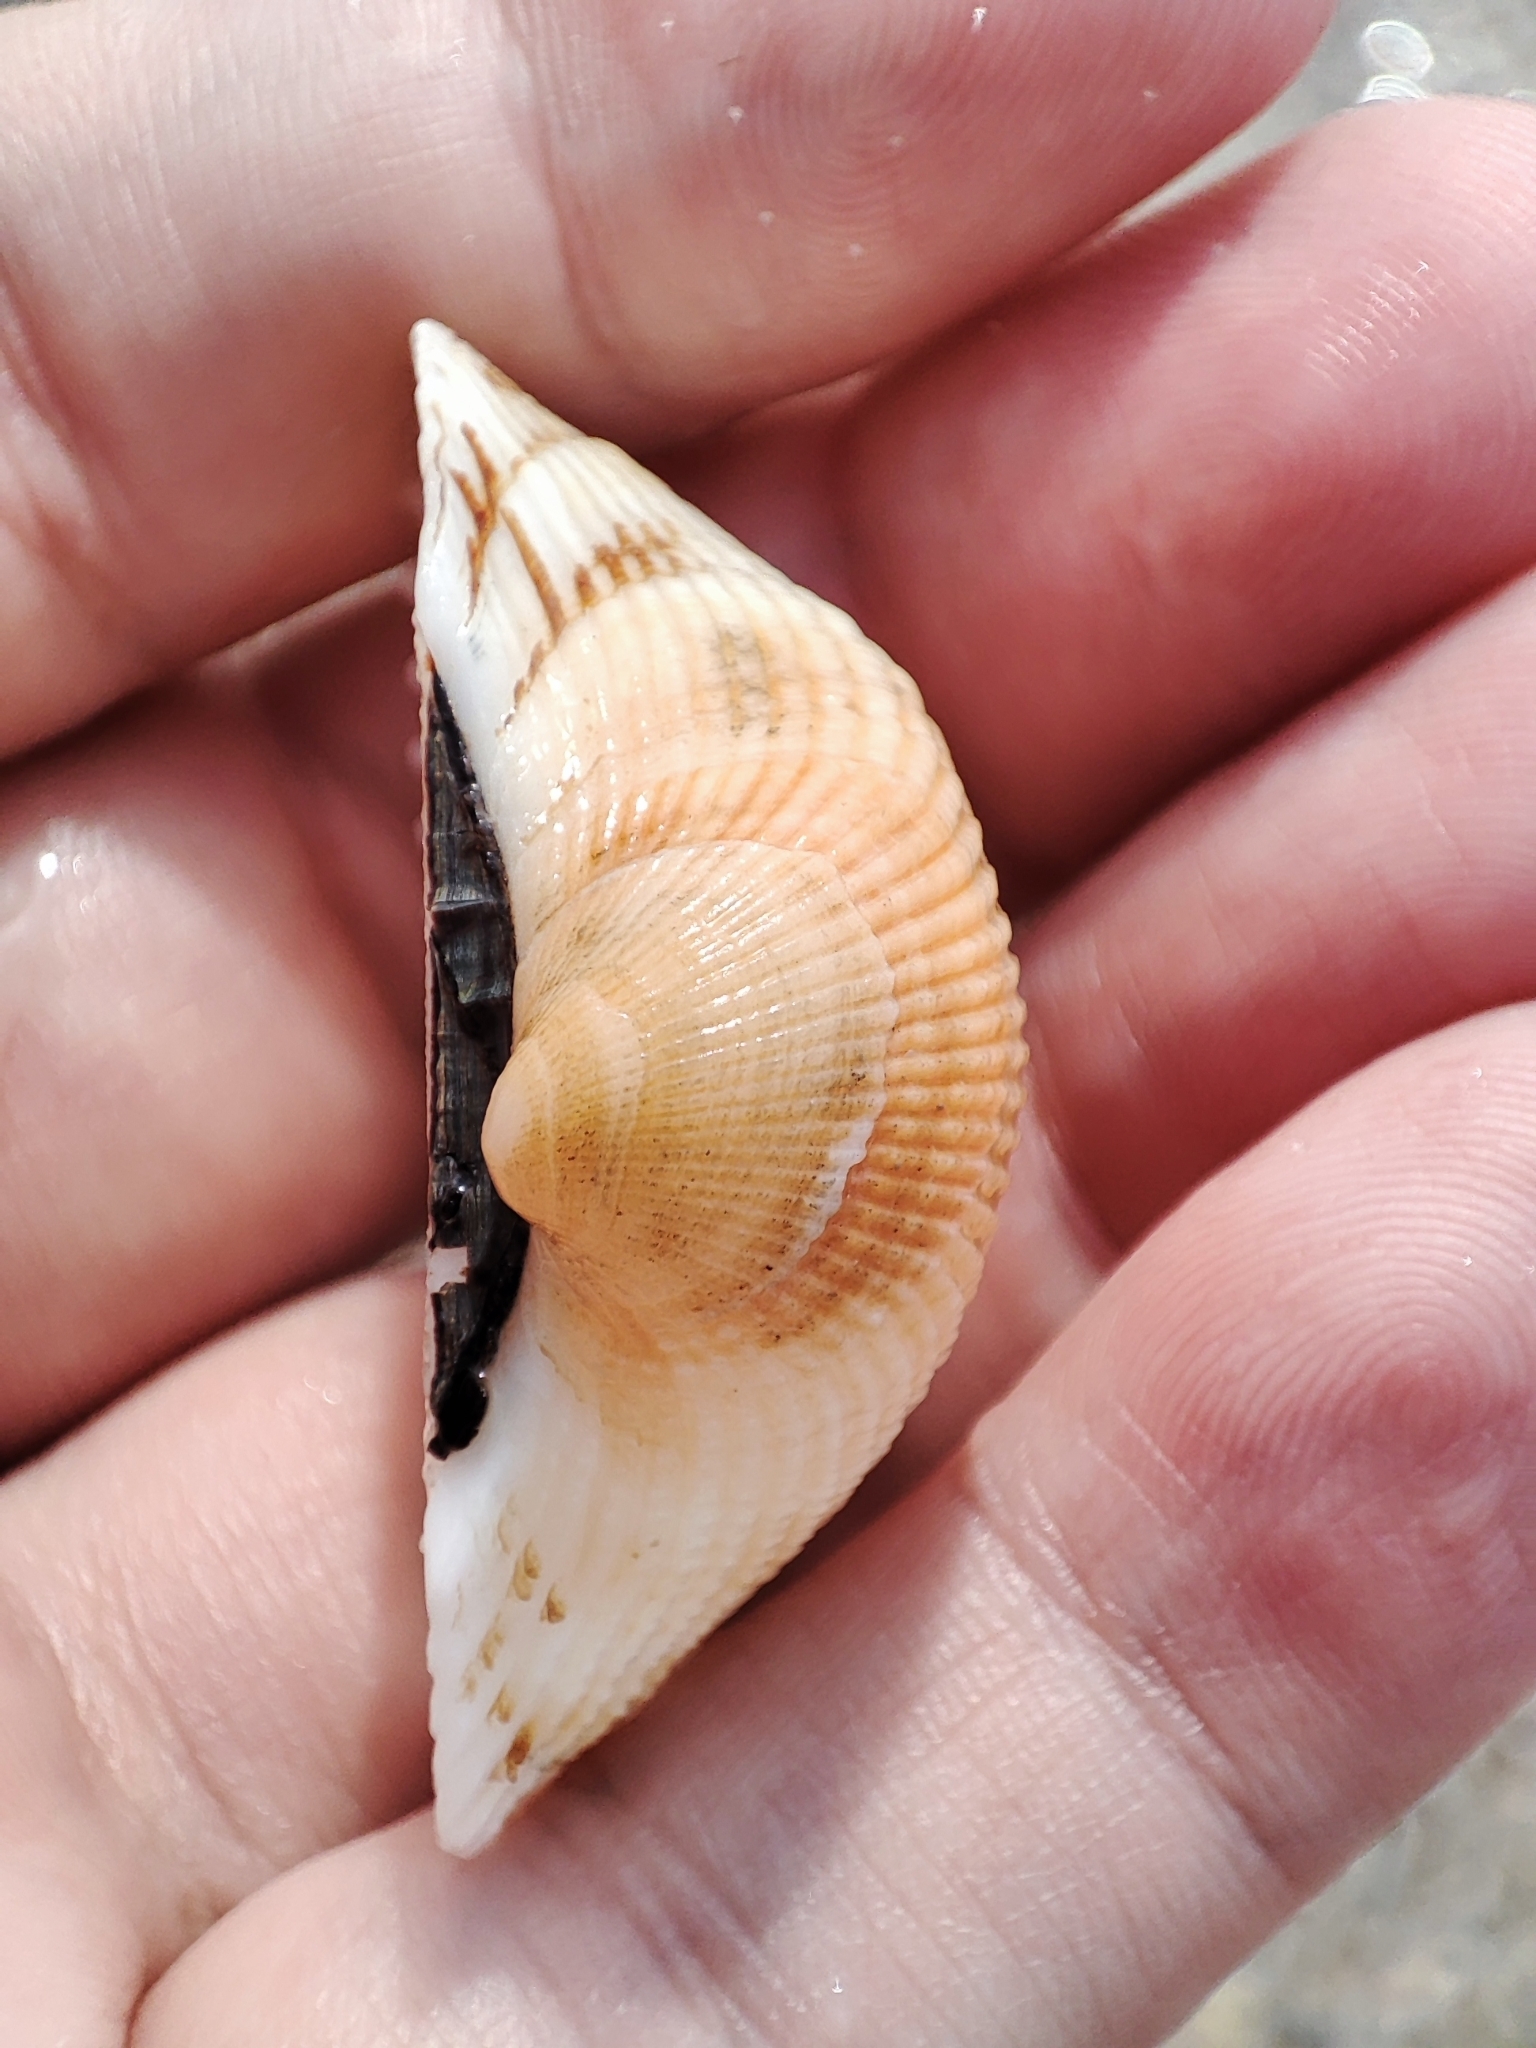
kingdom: Animalia
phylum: Mollusca
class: Bivalvia
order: Arcida
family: Arcidae
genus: Anadara
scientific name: Anadara kagoshimensis
